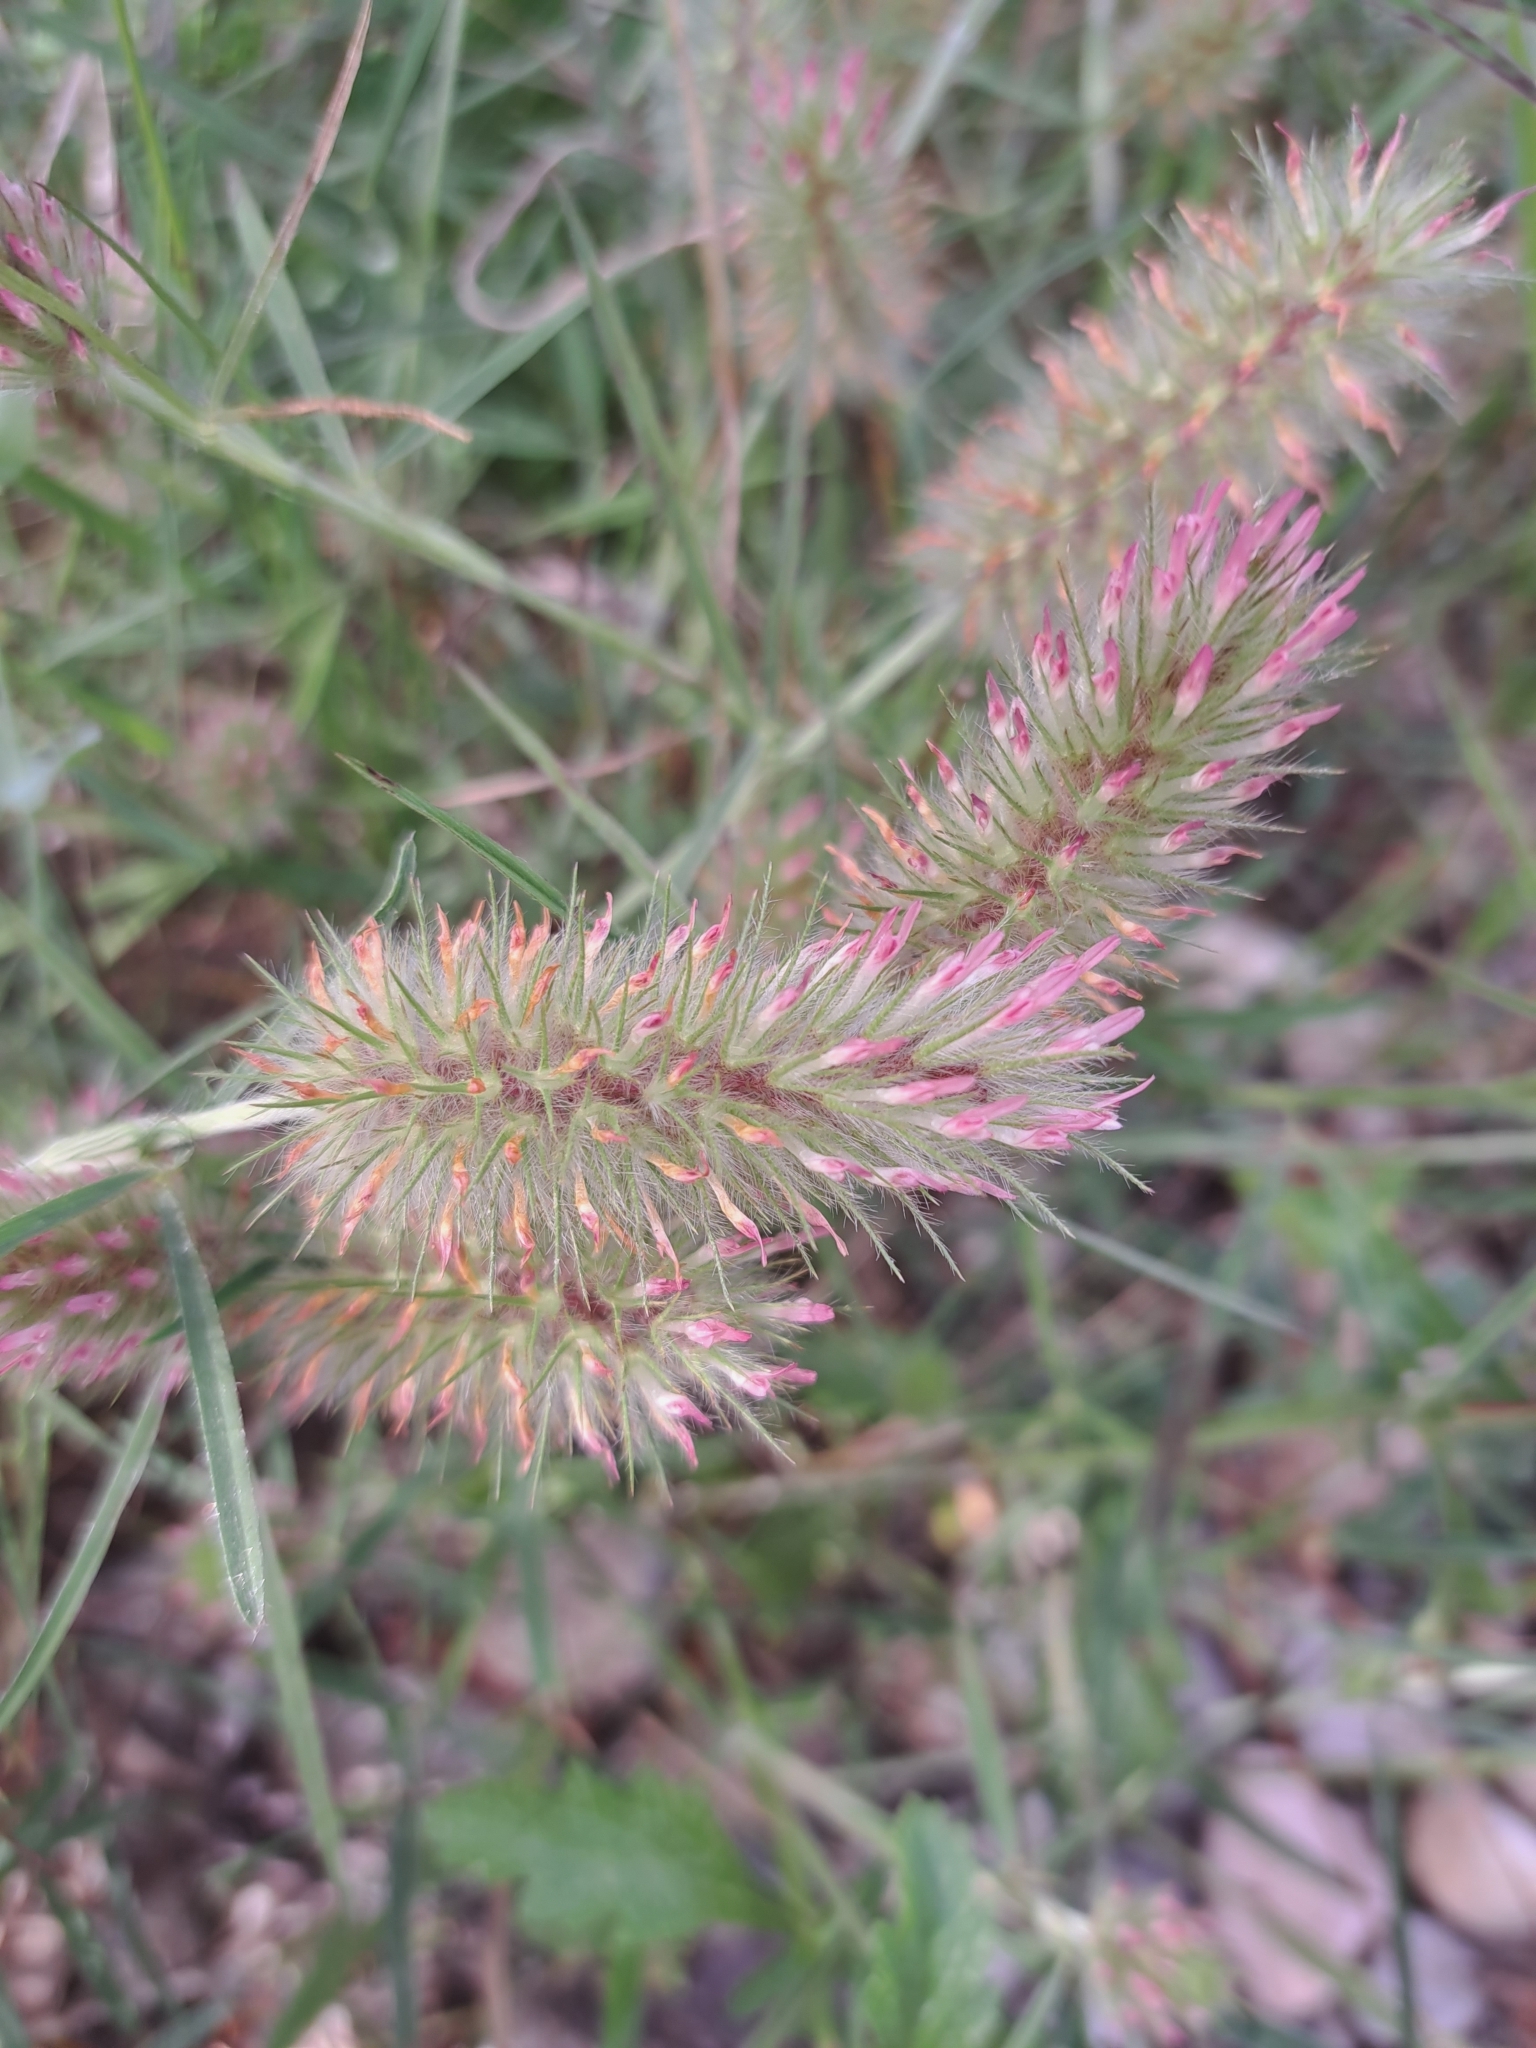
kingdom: Plantae
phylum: Tracheophyta
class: Magnoliopsida
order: Fabales
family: Fabaceae
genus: Trifolium
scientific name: Trifolium angustifolium
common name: Narrow clover
